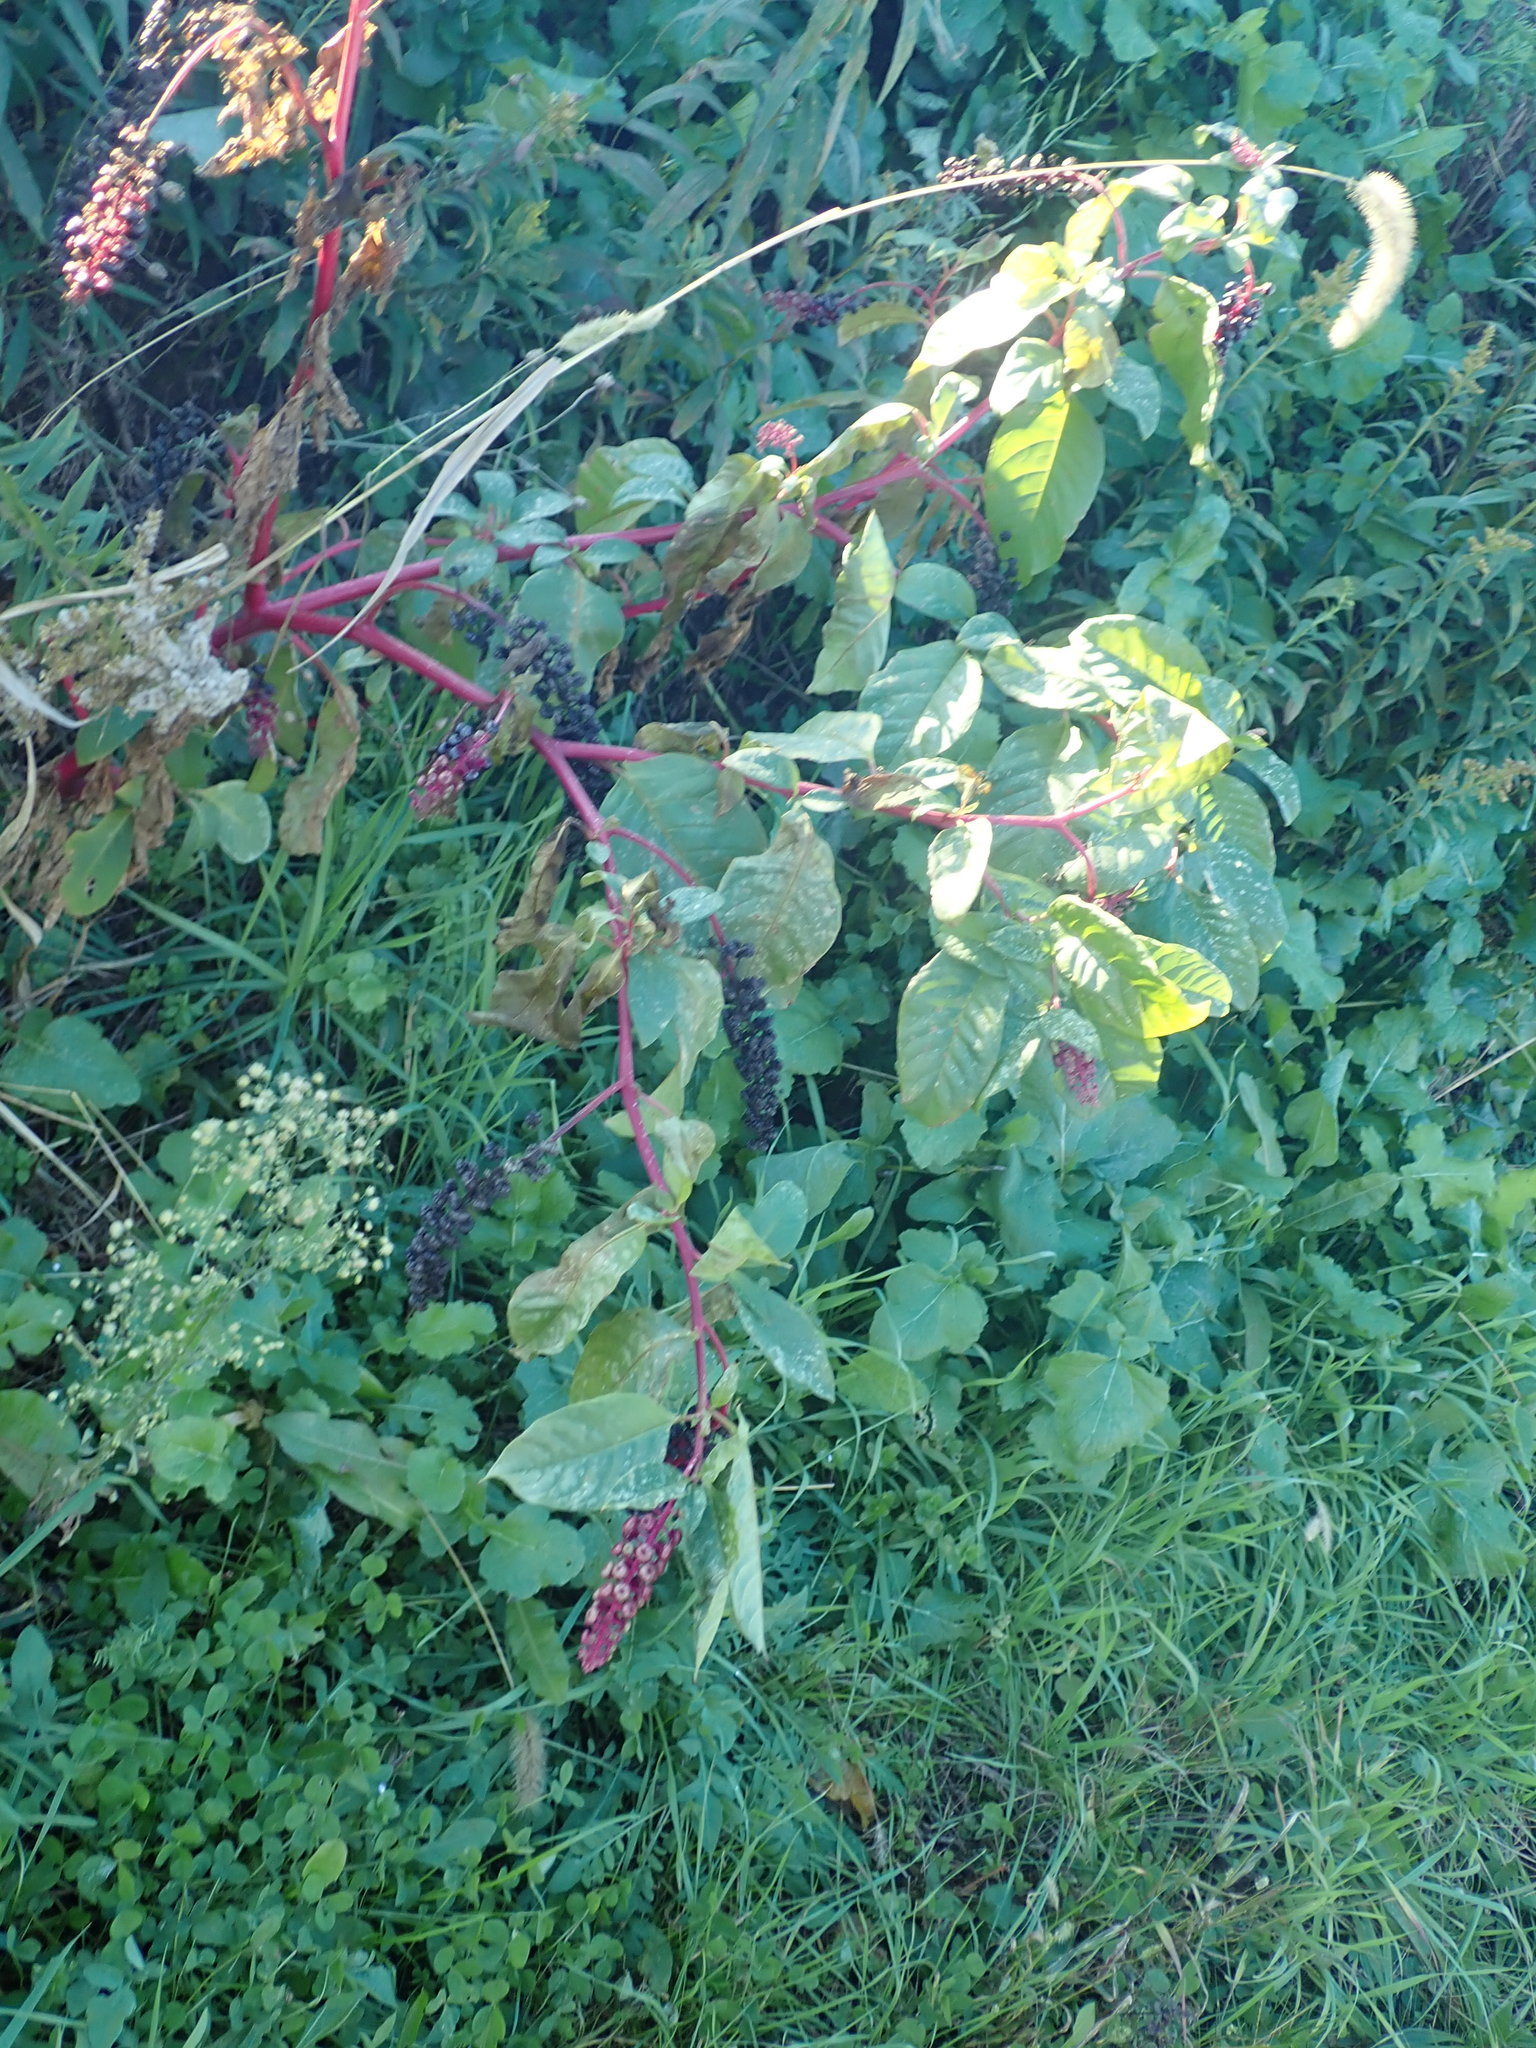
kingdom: Plantae
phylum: Tracheophyta
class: Magnoliopsida
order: Caryophyllales
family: Phytolaccaceae
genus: Phytolacca
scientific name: Phytolacca americana
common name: American pokeweed
